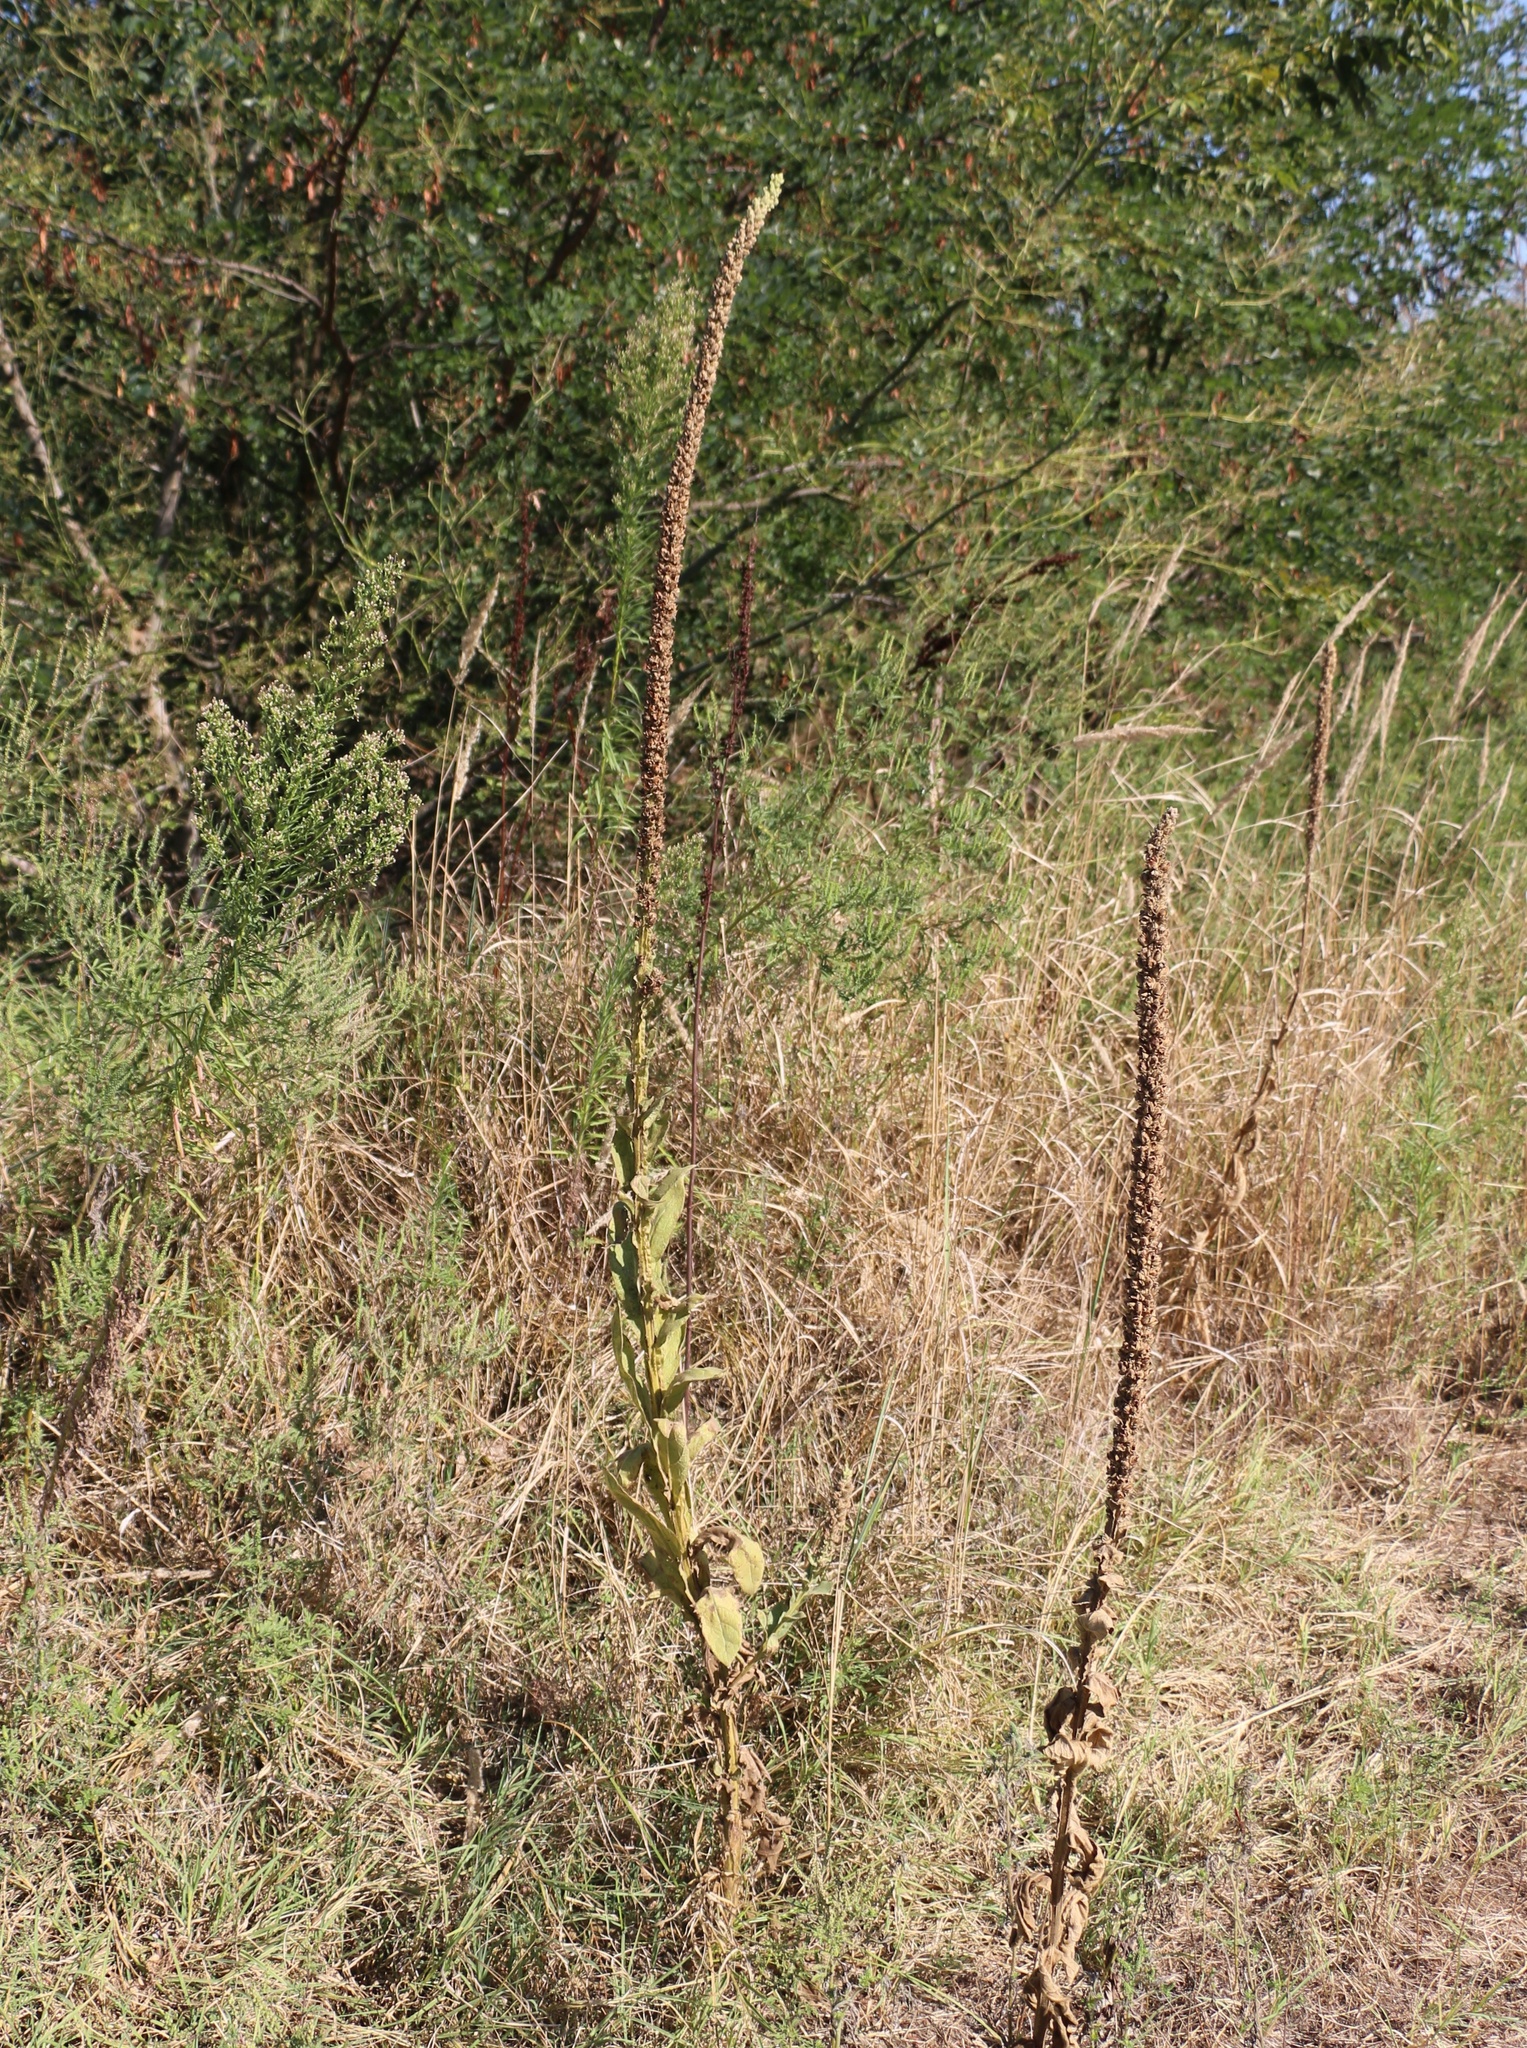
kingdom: Plantae
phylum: Tracheophyta
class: Magnoliopsida
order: Lamiales
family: Scrophulariaceae
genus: Verbascum
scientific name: Verbascum thapsus
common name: Common mullein
